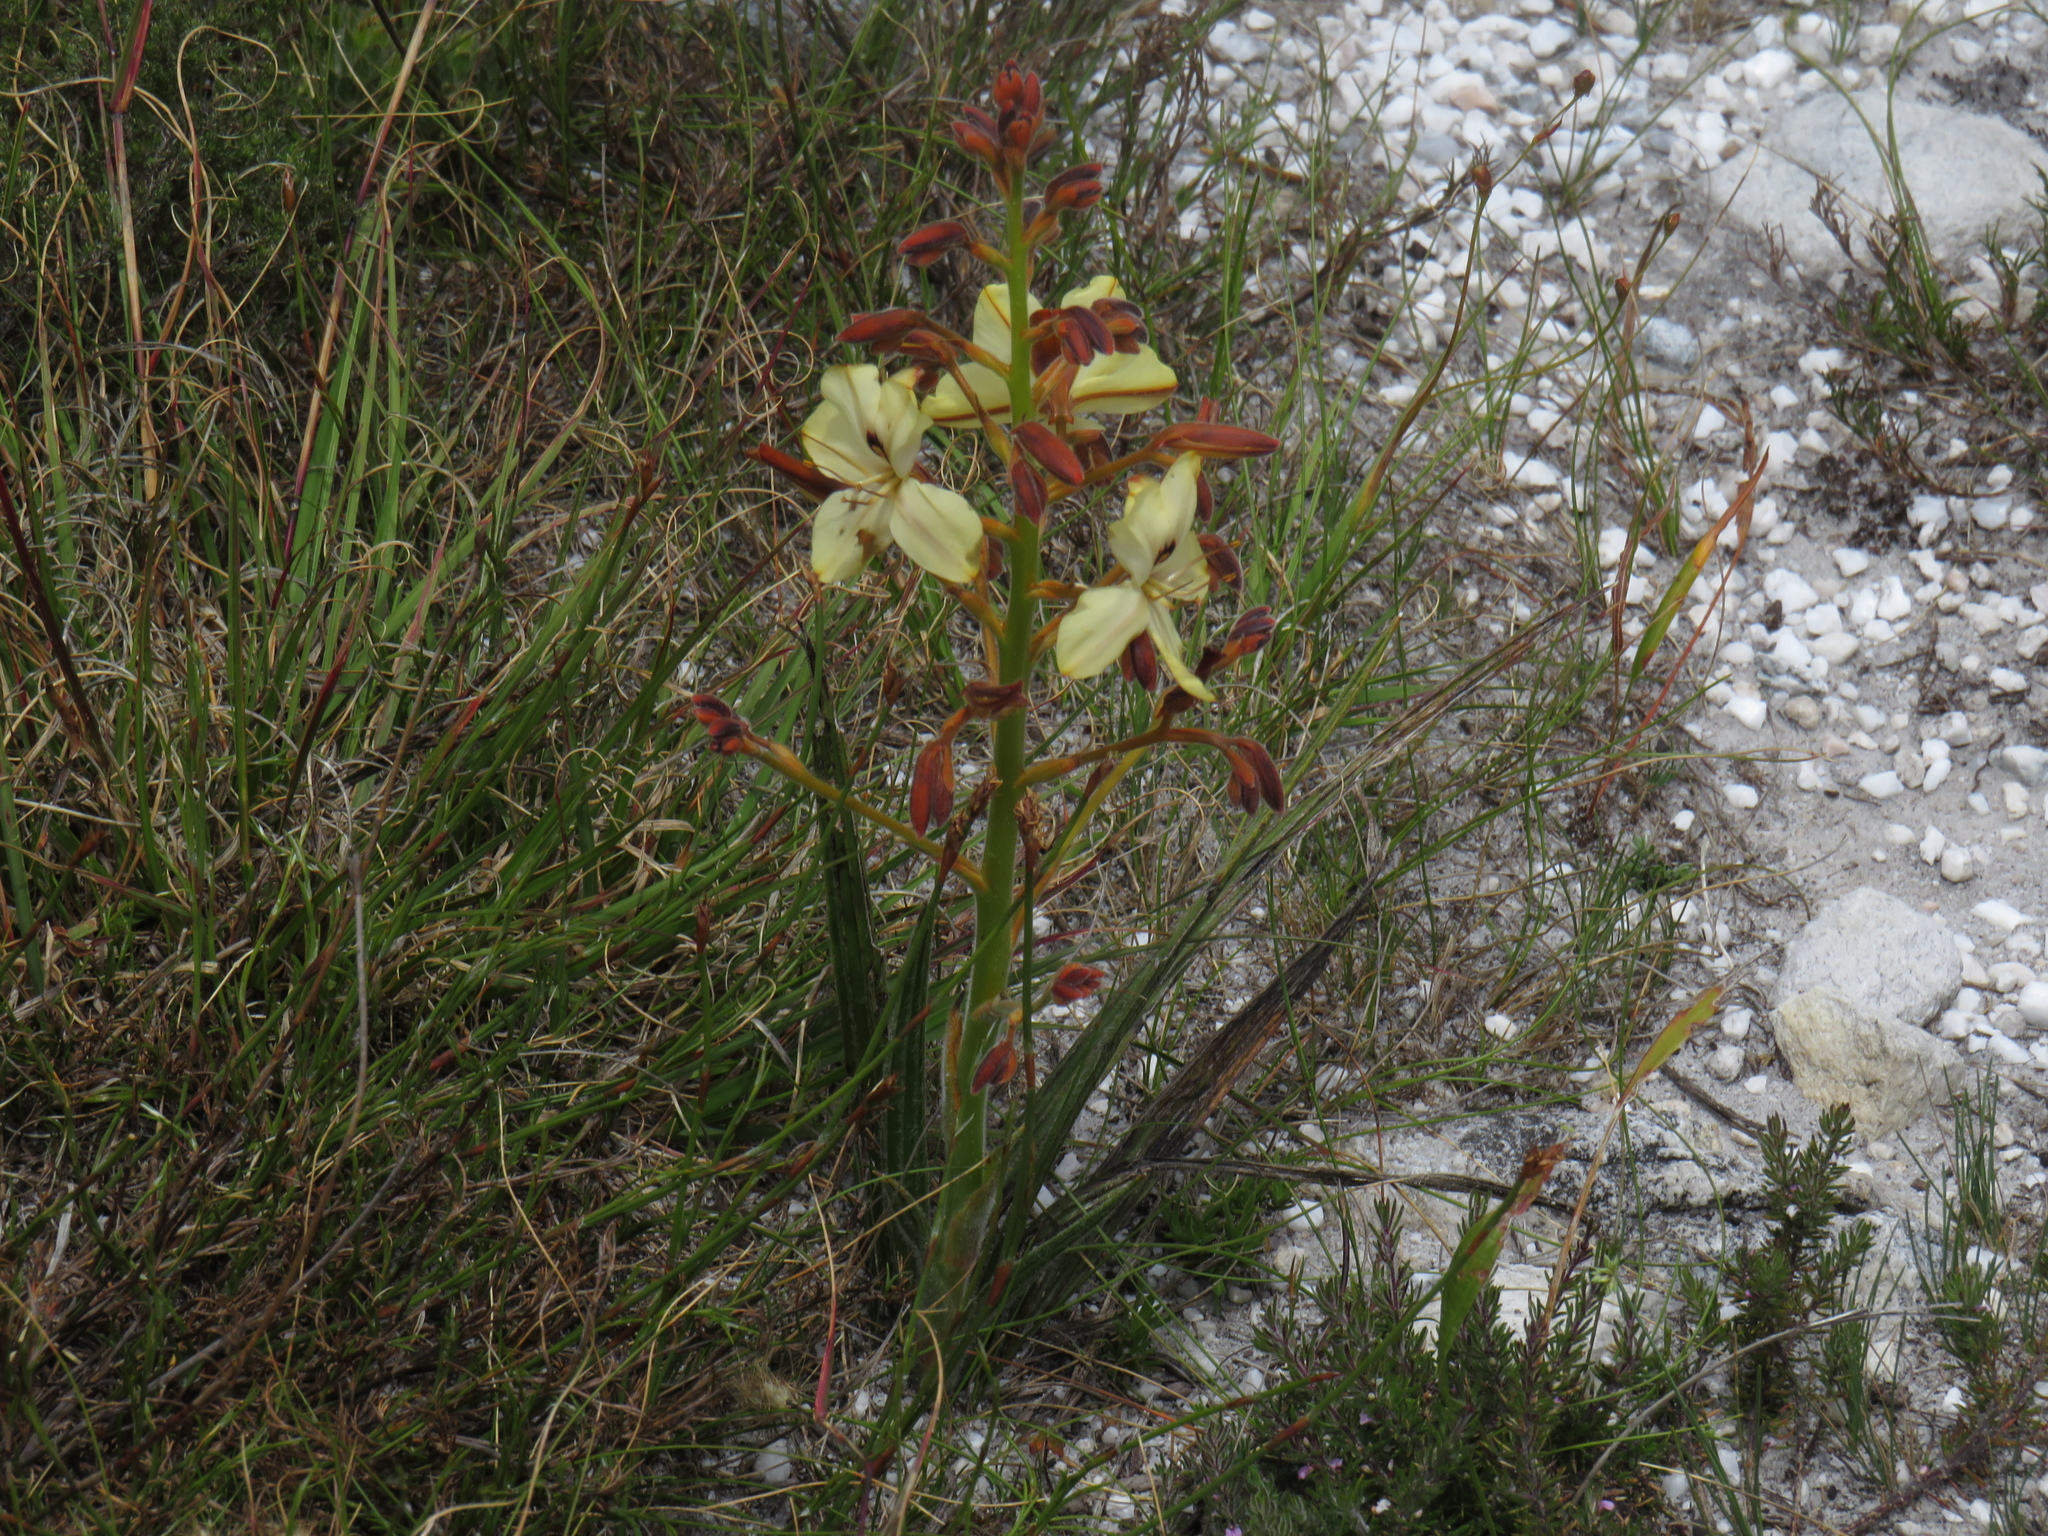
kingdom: Plantae
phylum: Tracheophyta
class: Liliopsida
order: Commelinales
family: Haemodoraceae
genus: Wachendorfia
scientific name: Wachendorfia paniculata
